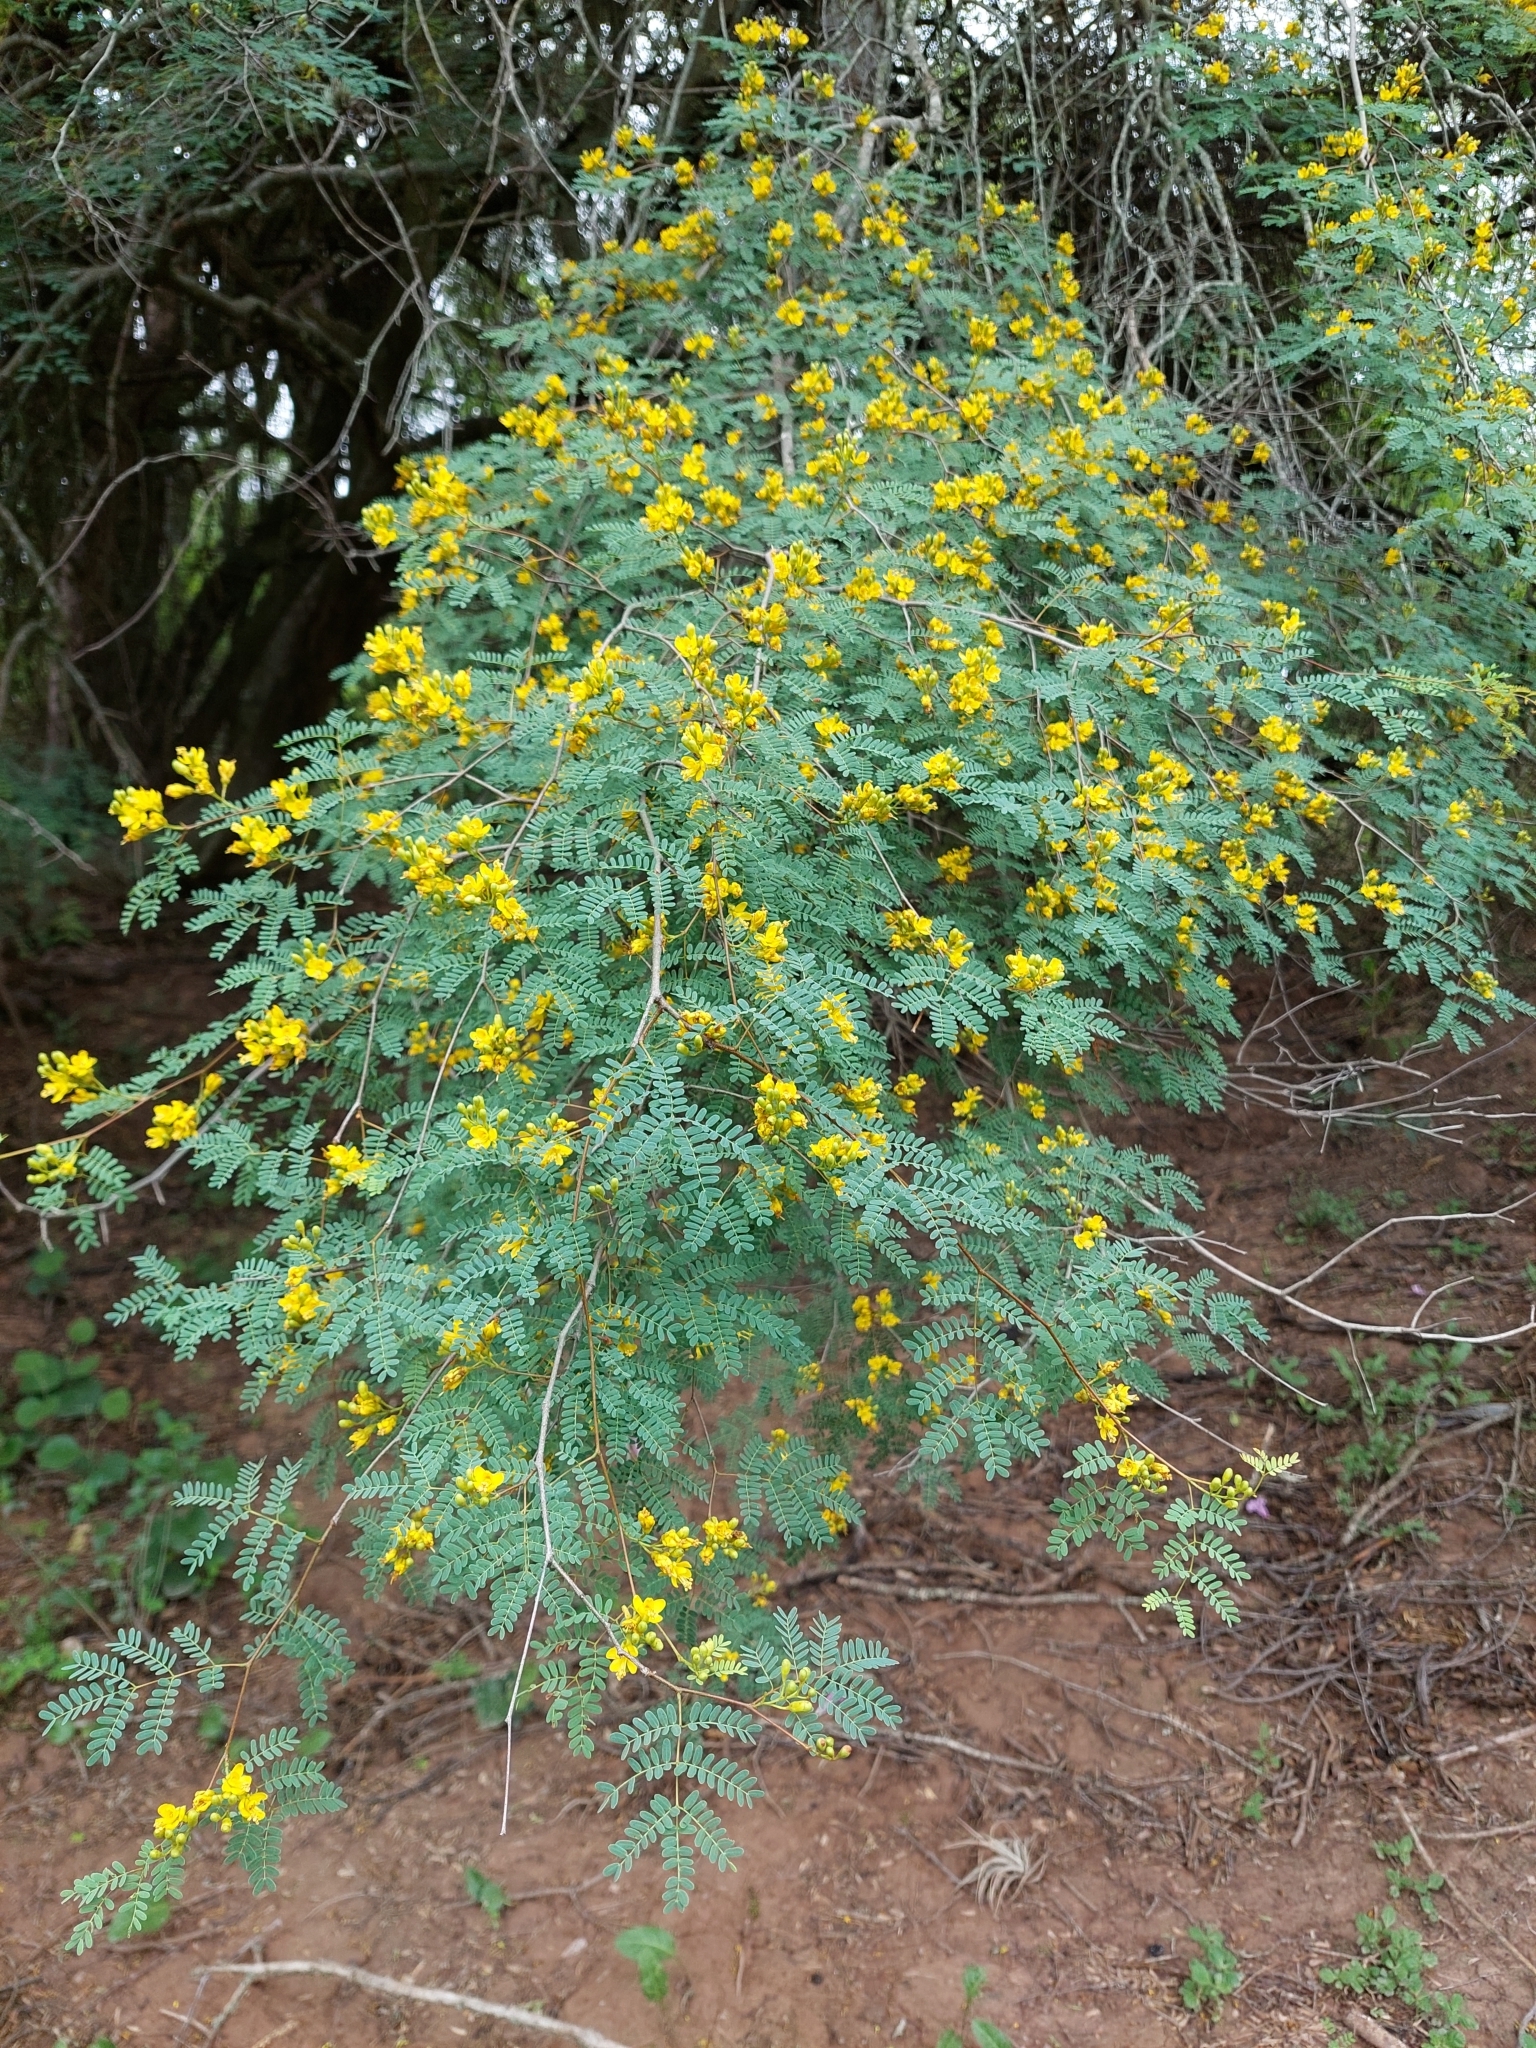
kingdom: Plantae
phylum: Tracheophyta
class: Magnoliopsida
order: Fabales
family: Fabaceae
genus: Libidibia
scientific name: Libidibia paraguariensis
